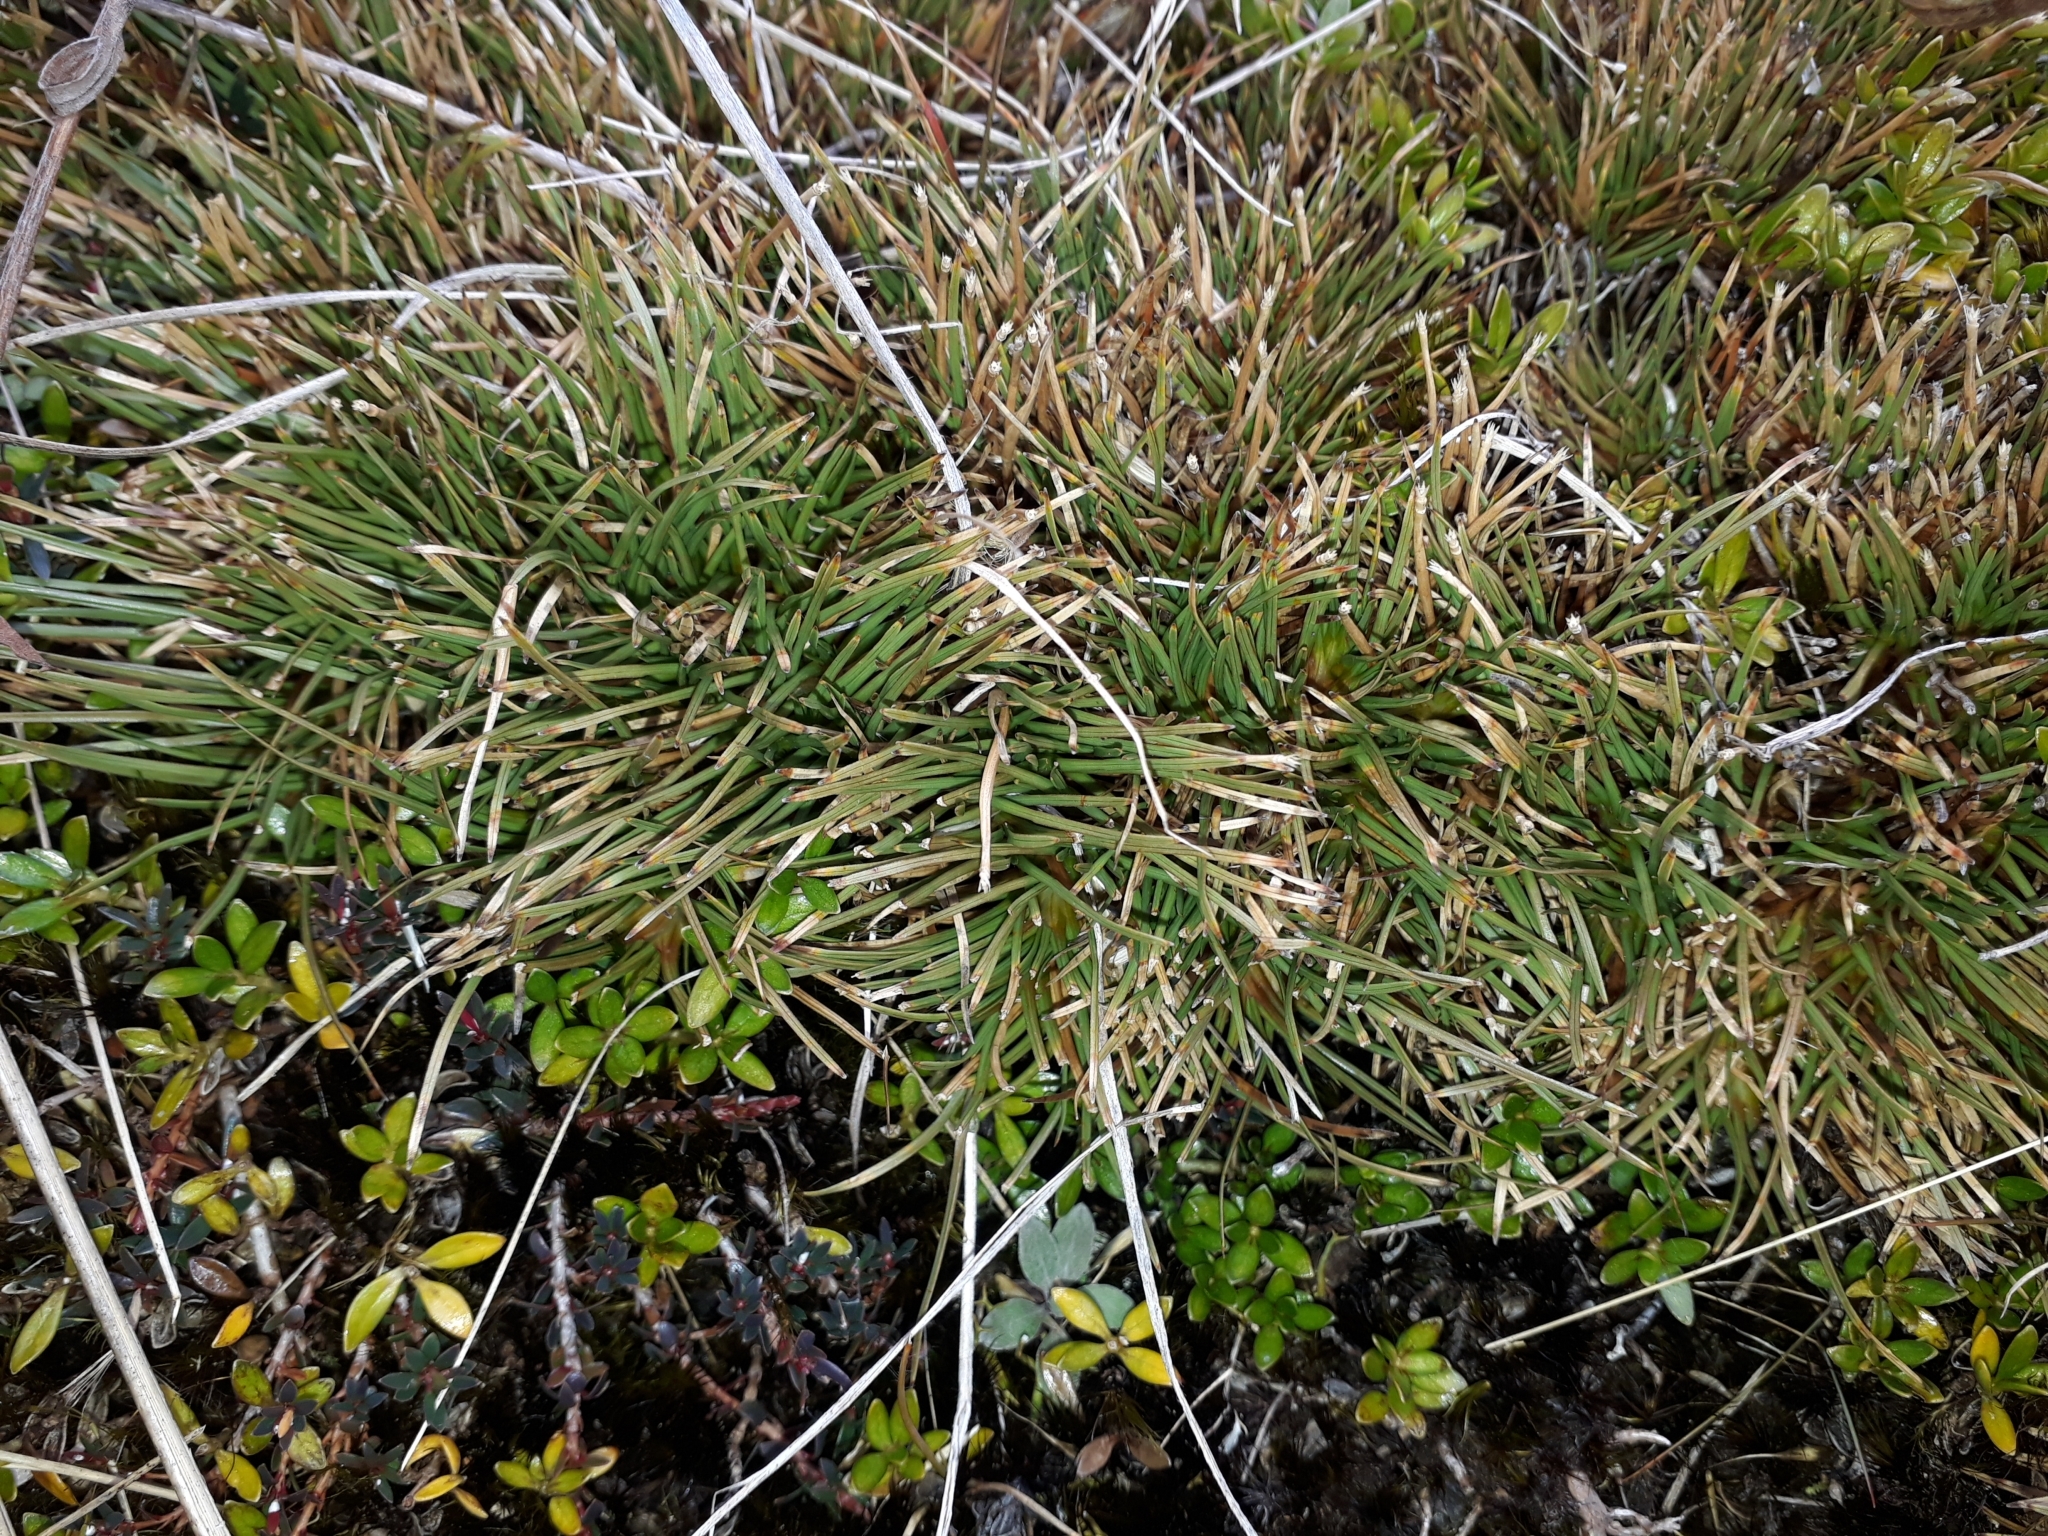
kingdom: Plantae
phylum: Tracheophyta
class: Liliopsida
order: Poales
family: Cyperaceae
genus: Oreobolus
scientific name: Oreobolus pectinatus
